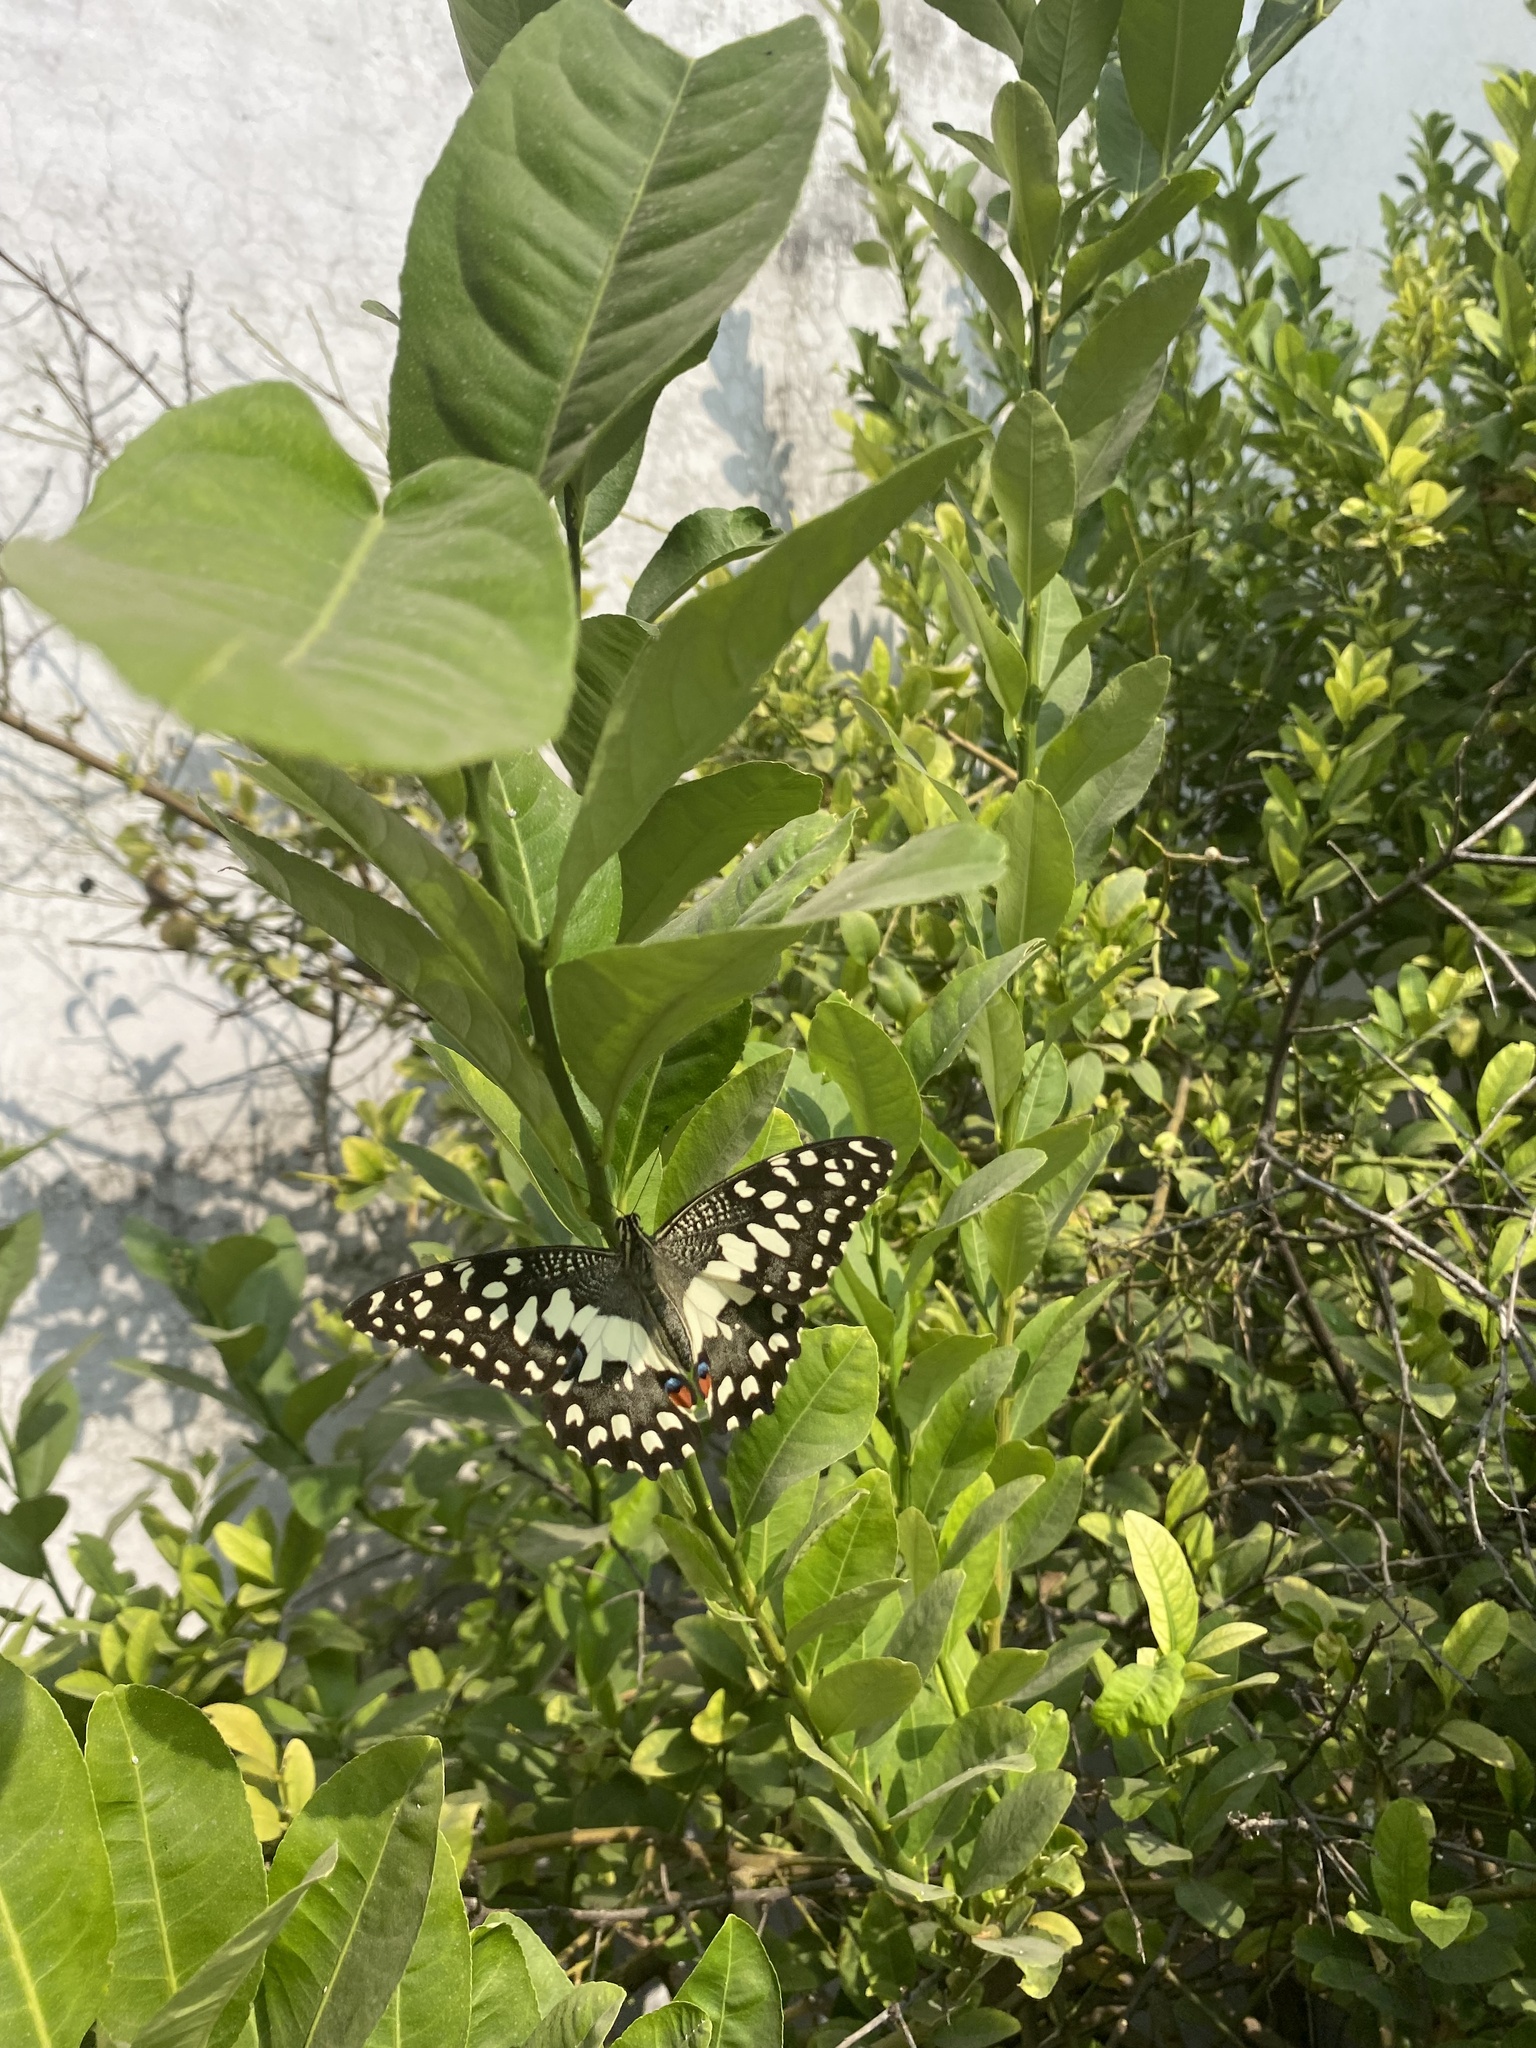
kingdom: Animalia
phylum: Arthropoda
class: Insecta
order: Lepidoptera
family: Papilionidae
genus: Papilio
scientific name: Papilio demoleus
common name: Lime butterfly
